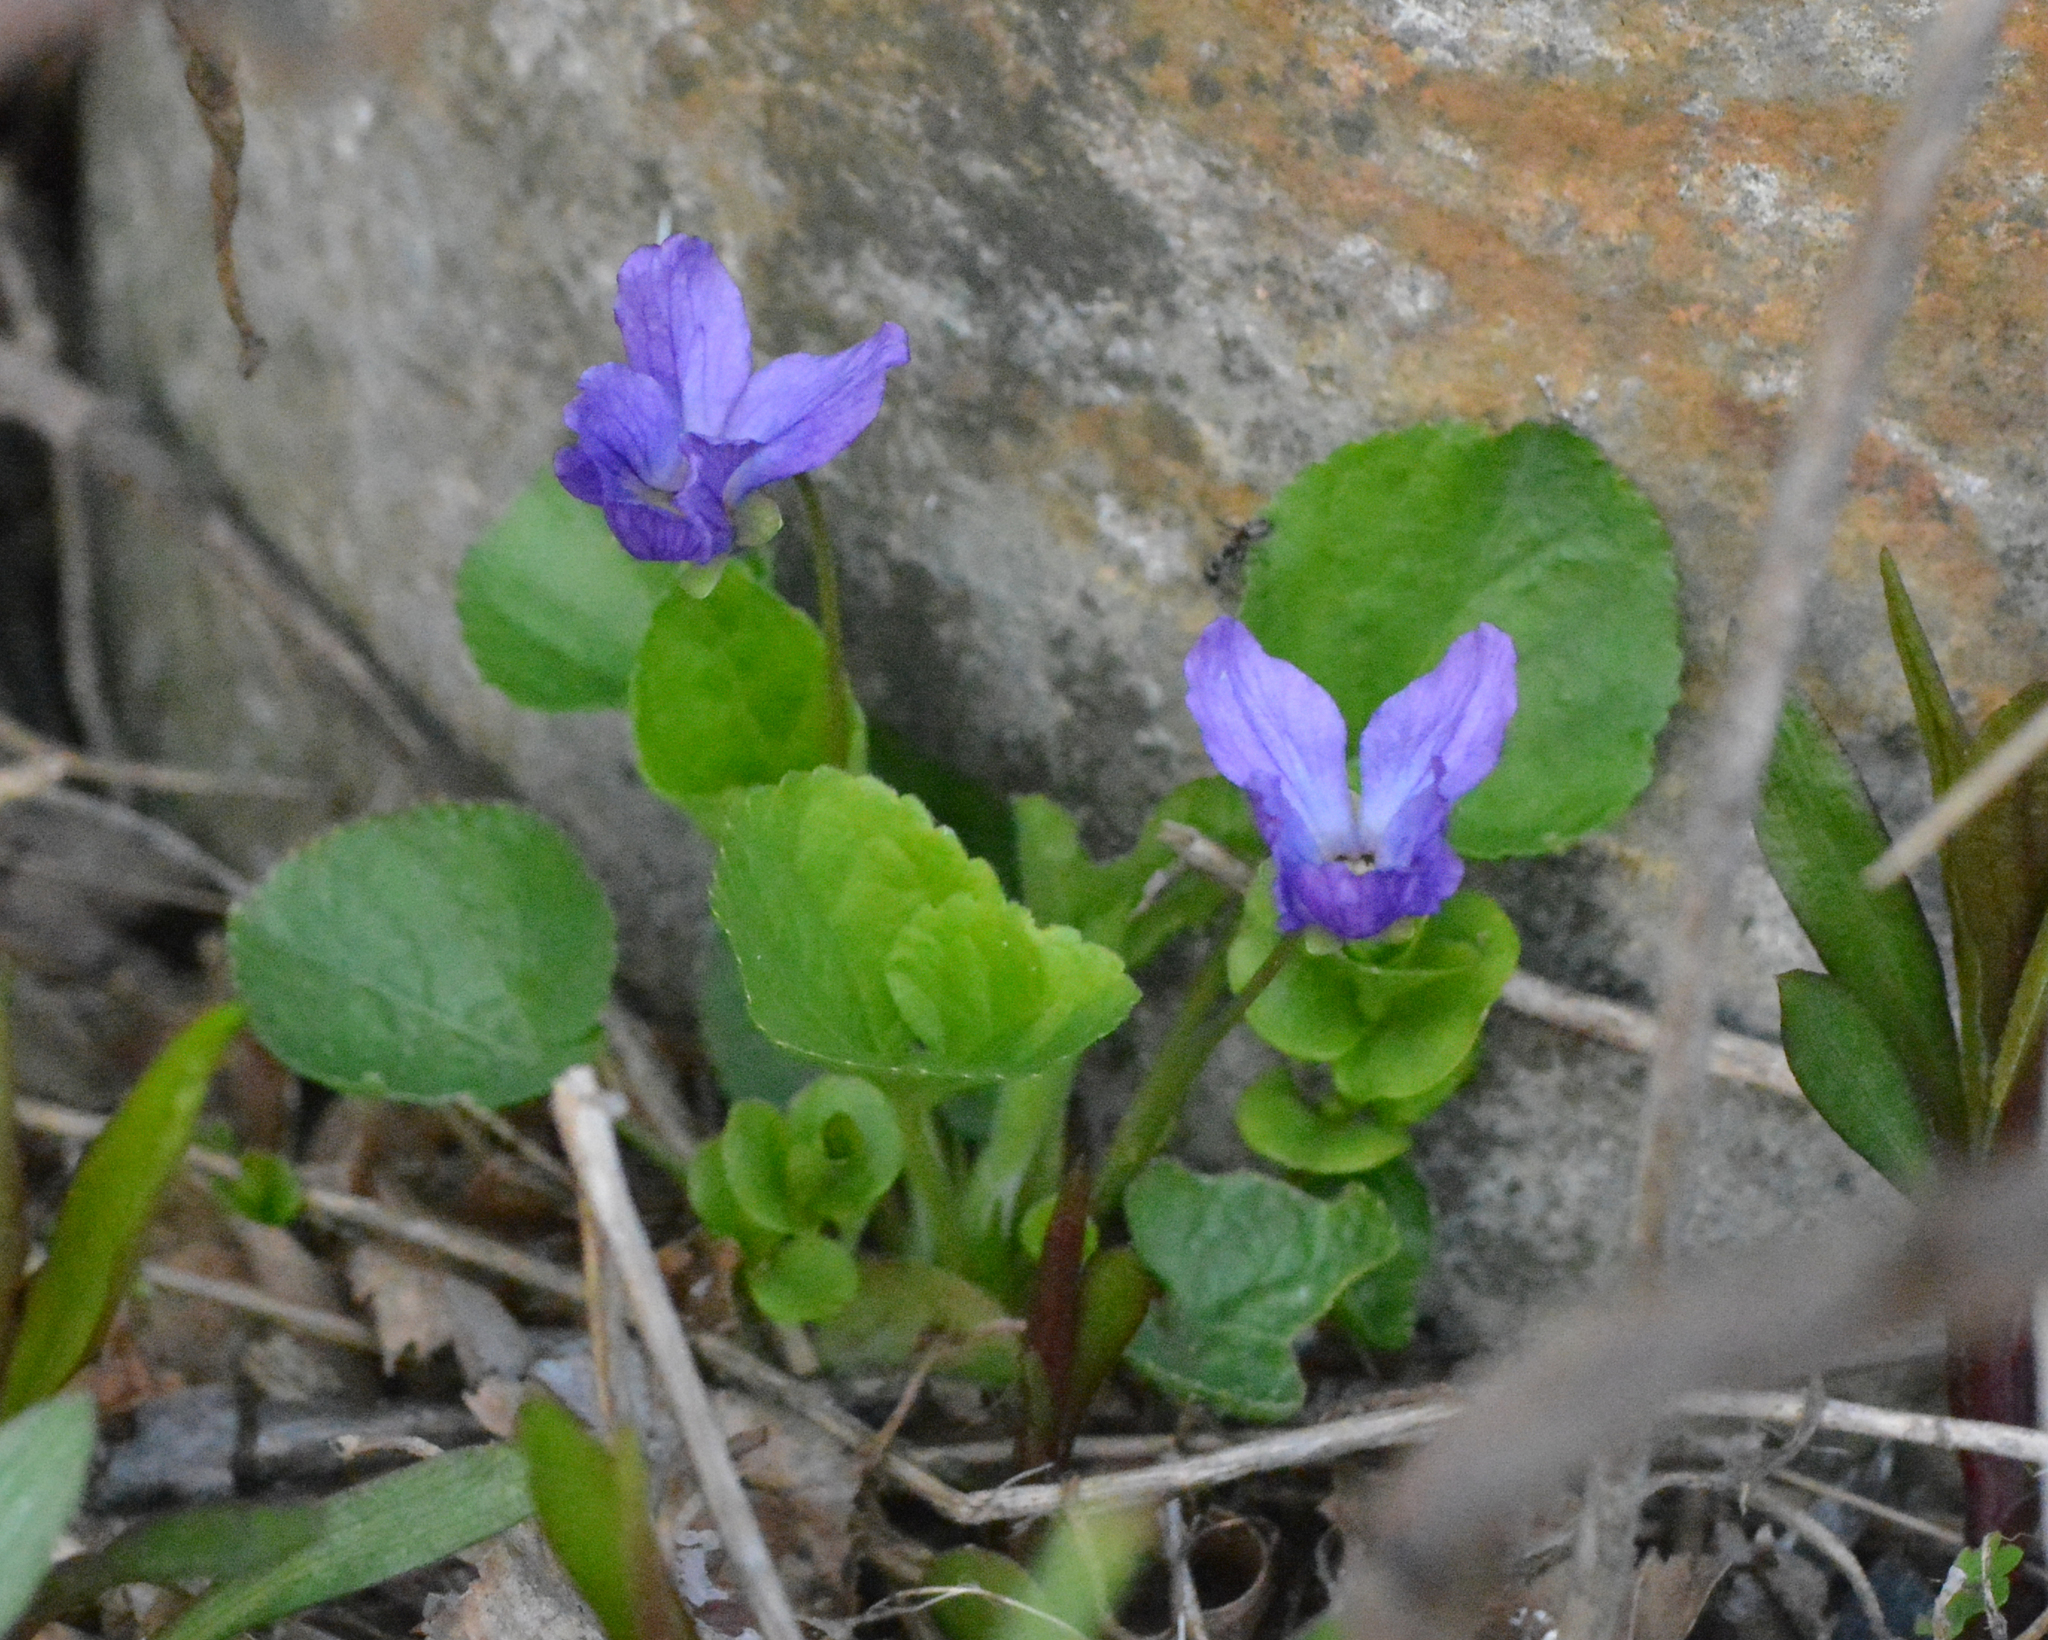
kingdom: Plantae
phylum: Tracheophyta
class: Magnoliopsida
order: Malpighiales
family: Violaceae
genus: Viola
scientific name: Viola odorata
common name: Sweet violet
